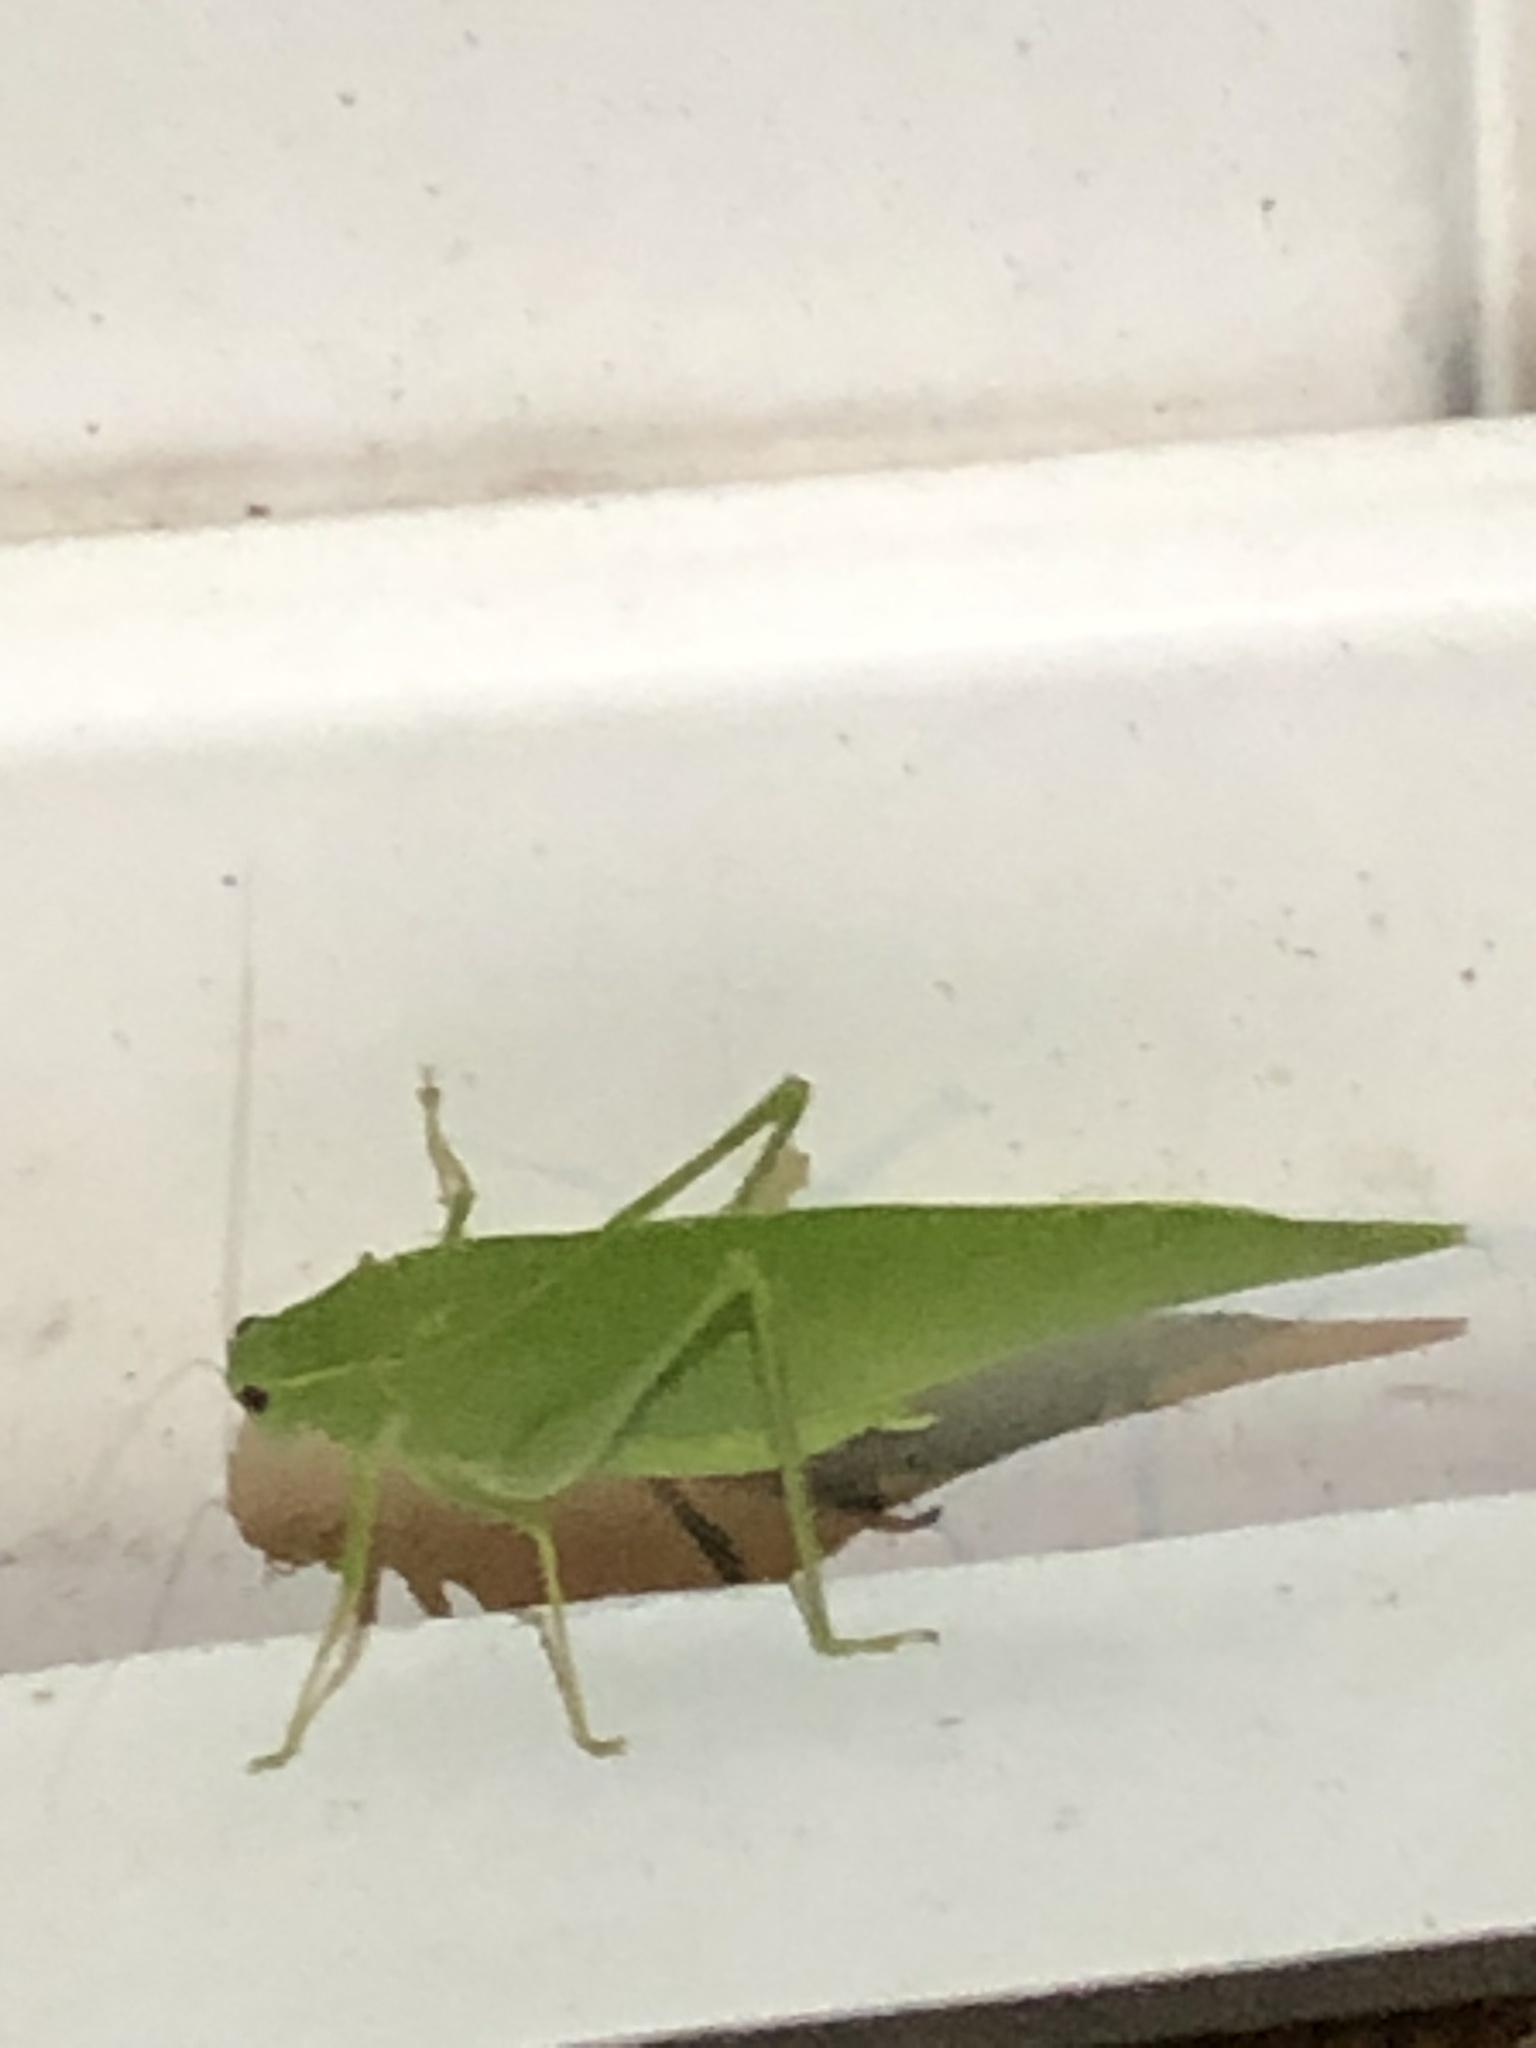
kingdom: Animalia
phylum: Arthropoda
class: Insecta
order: Orthoptera
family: Tettigoniidae
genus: Microcentrum
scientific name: Microcentrum rhombifolium
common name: Broad-winged katydid
